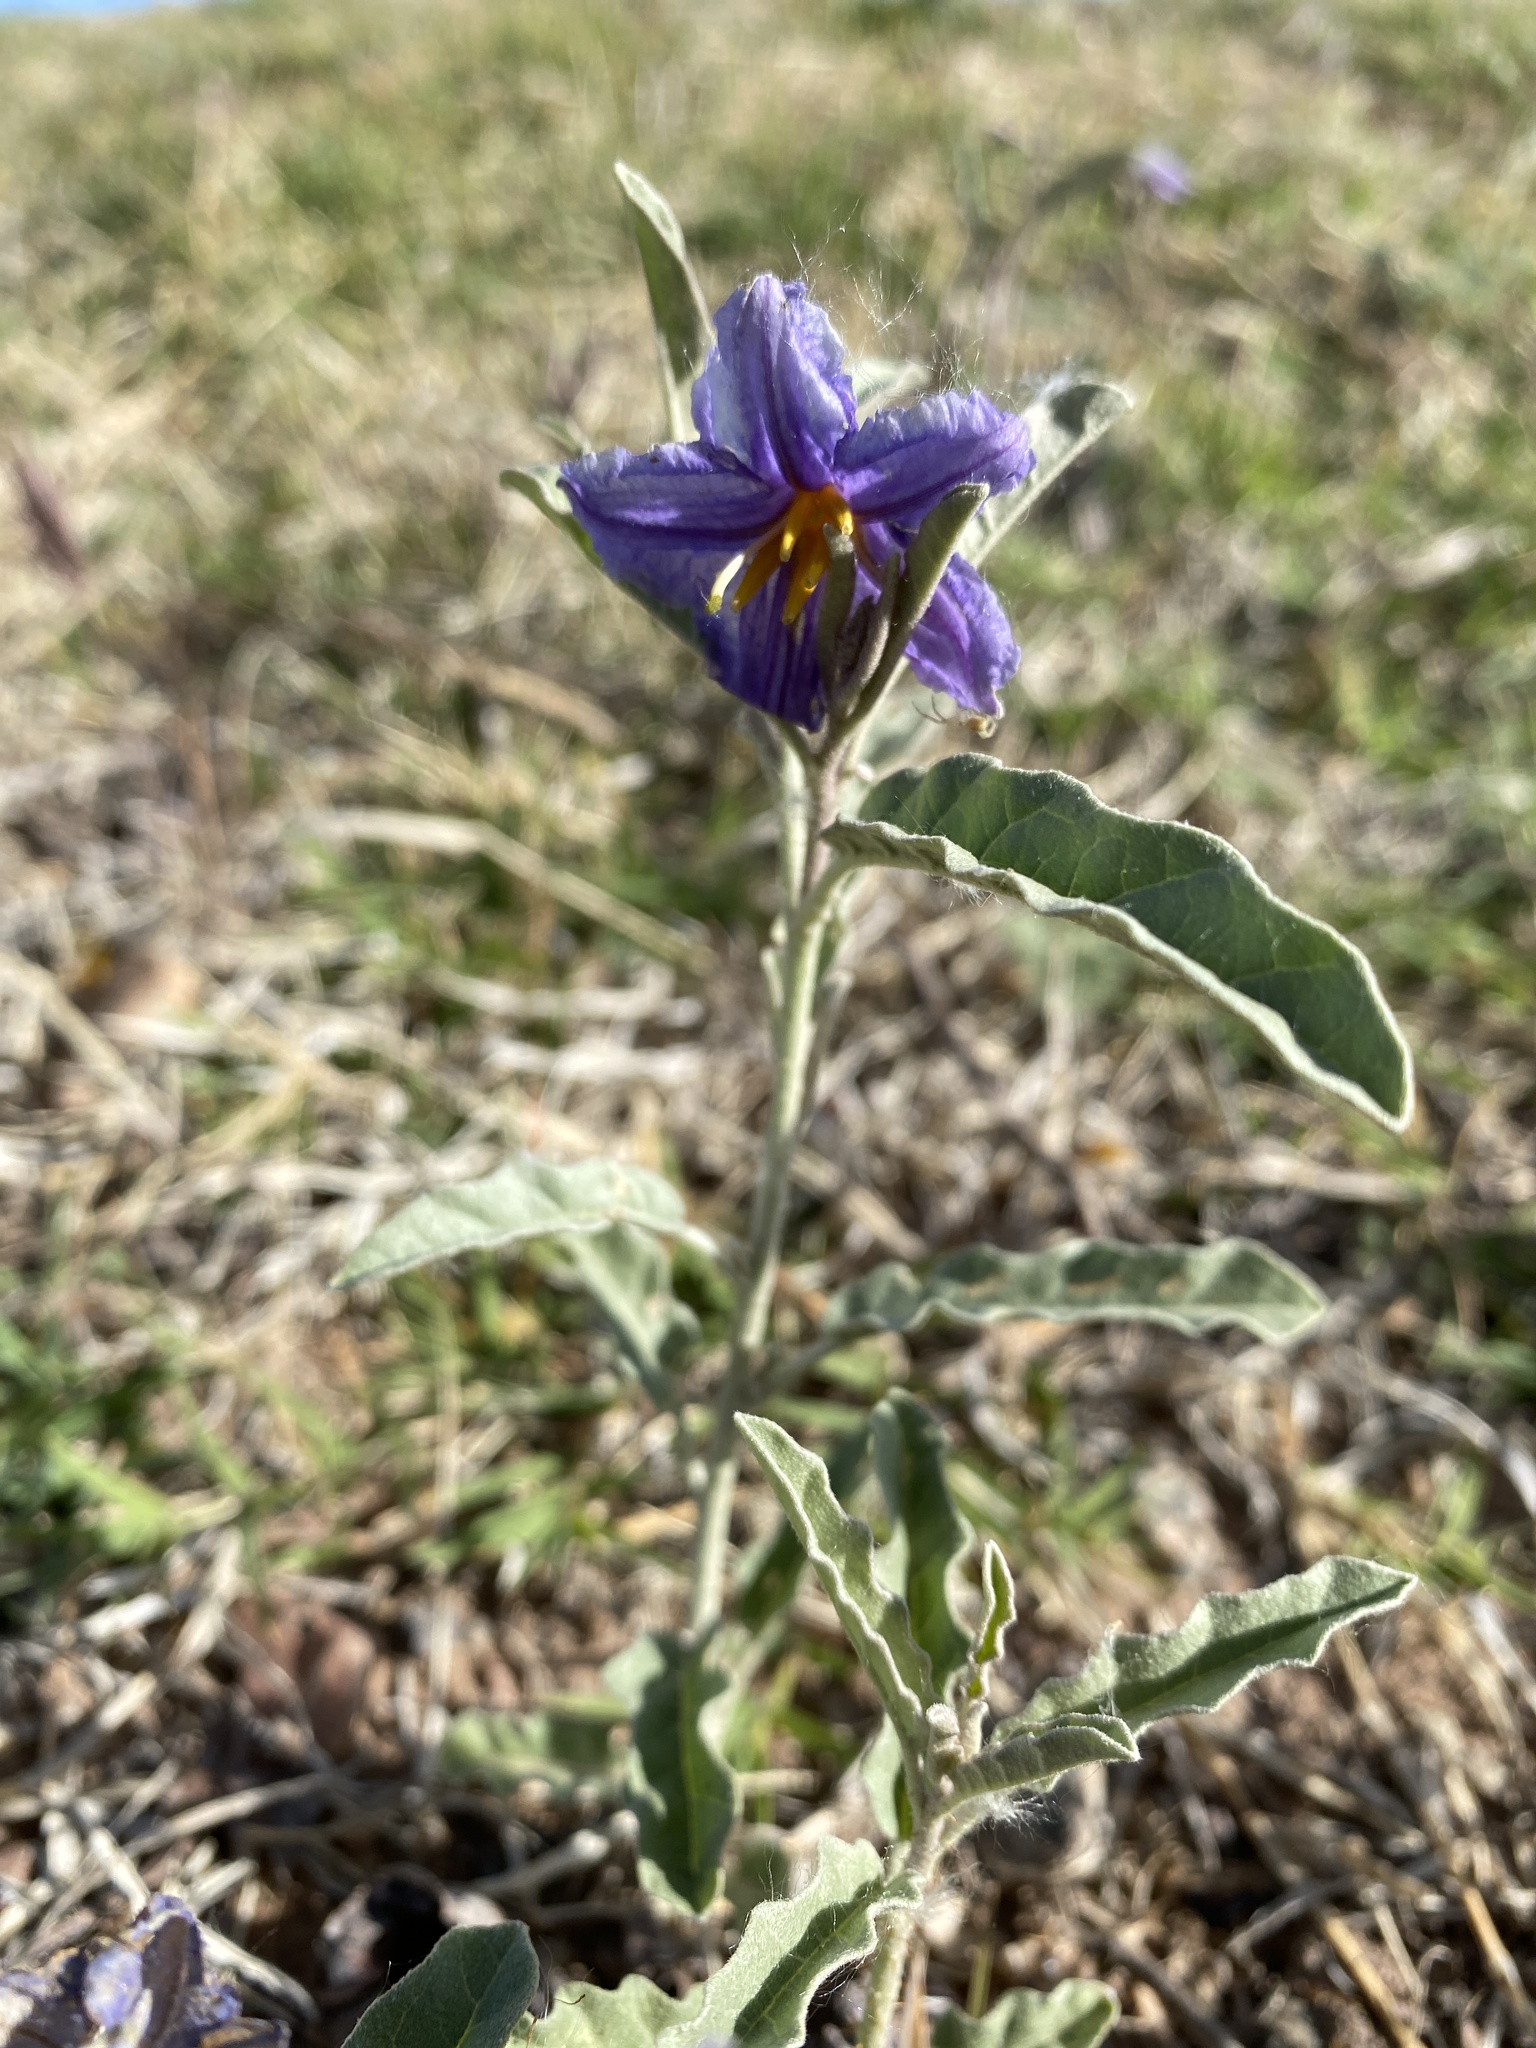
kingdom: Plantae
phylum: Tracheophyta
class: Magnoliopsida
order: Solanales
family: Solanaceae
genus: Solanum
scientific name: Solanum elaeagnifolium
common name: Silverleaf nightshade
